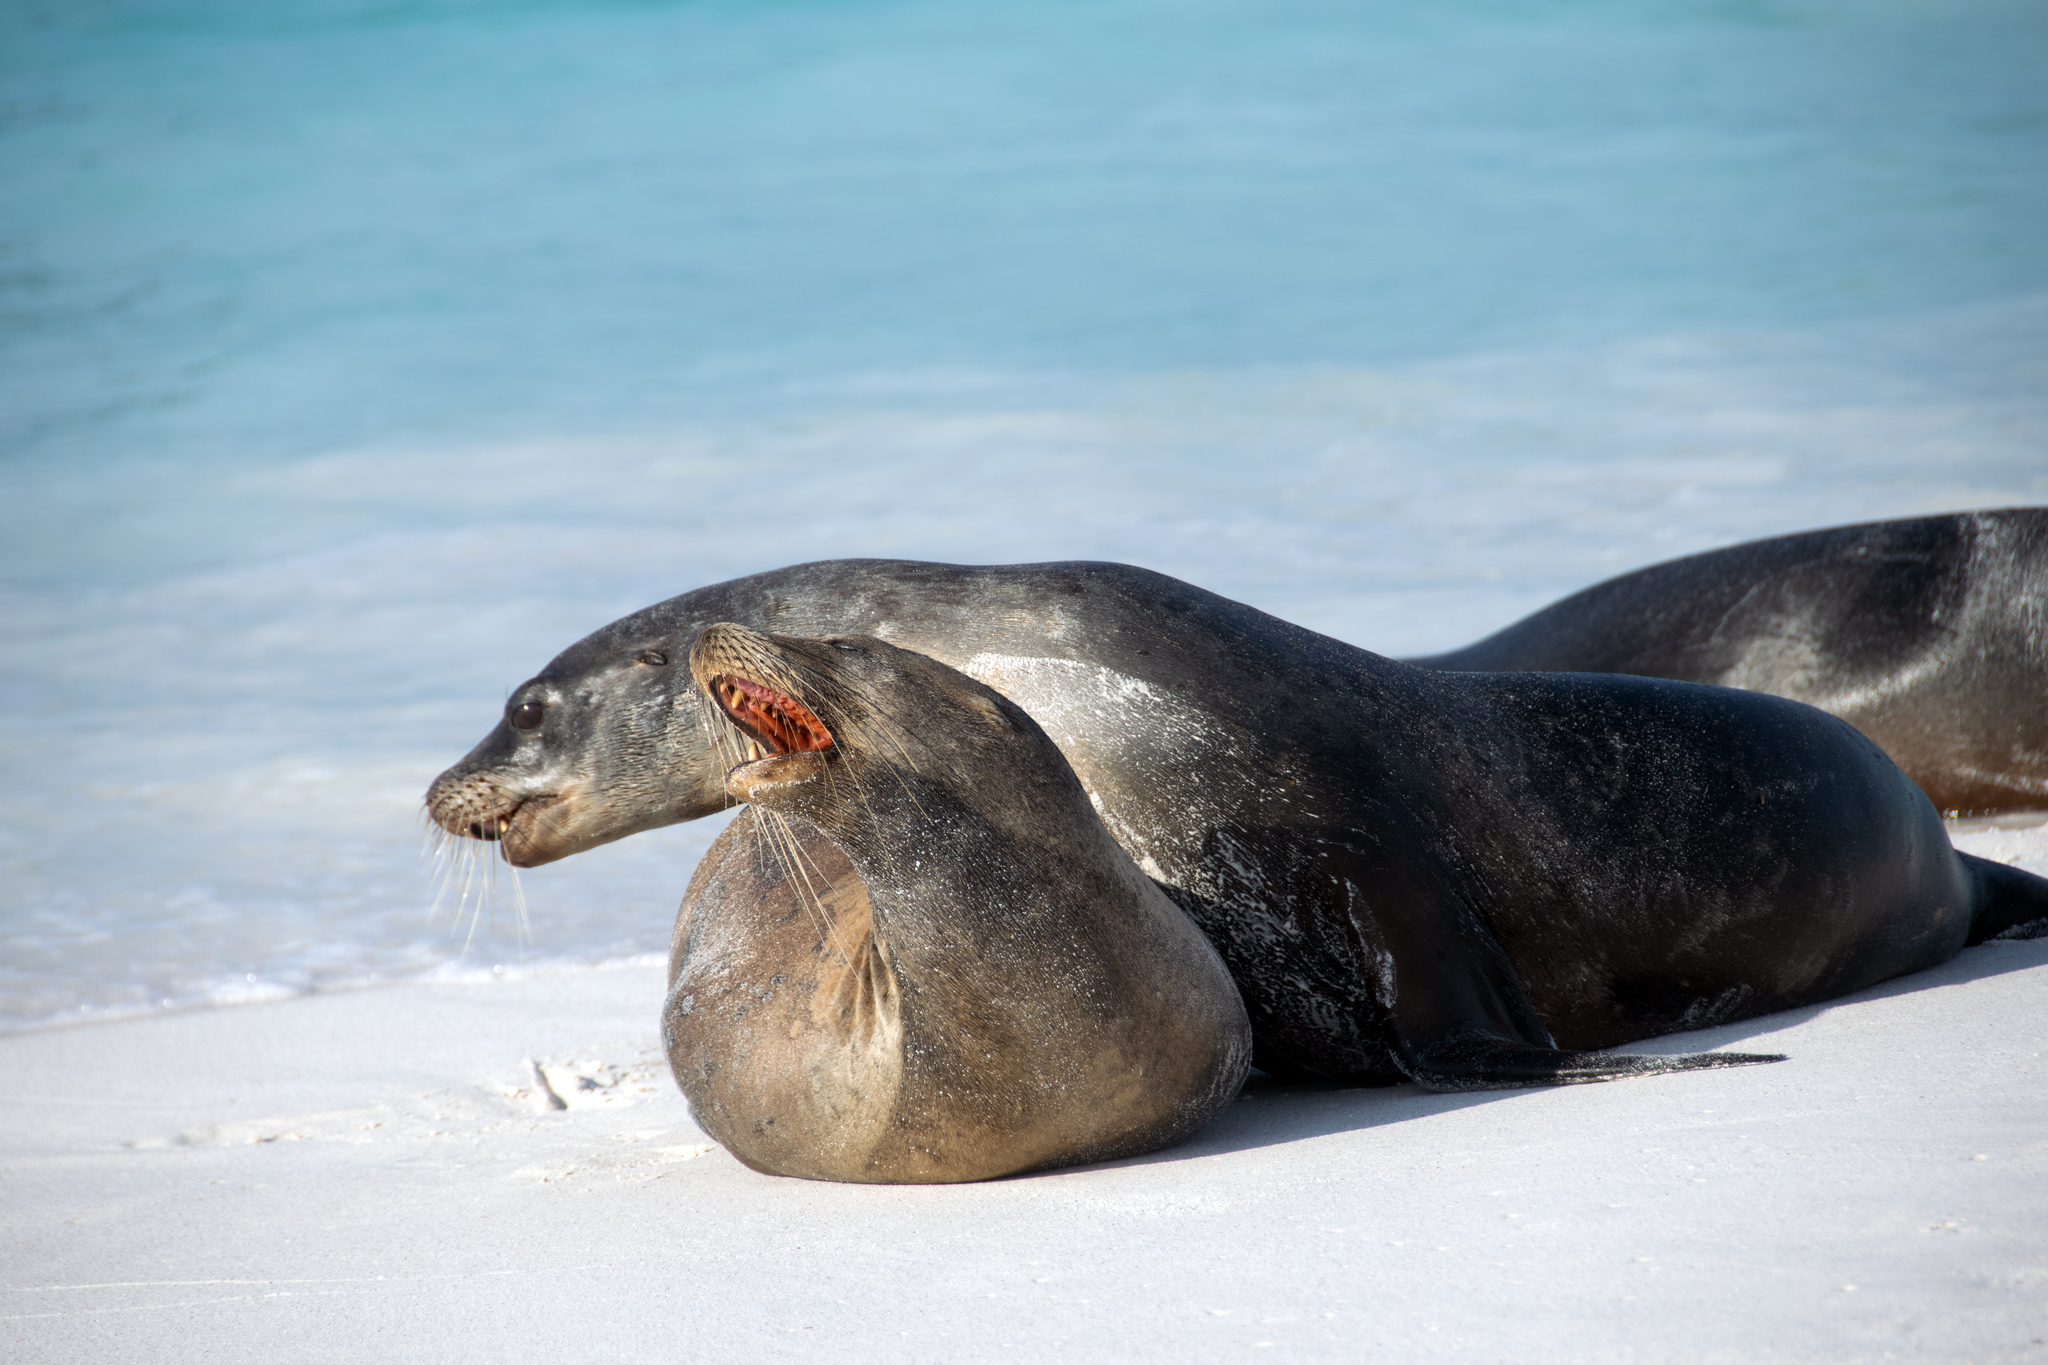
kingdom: Animalia
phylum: Chordata
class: Mammalia
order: Carnivora
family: Otariidae
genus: Zalophus
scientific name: Zalophus wollebaeki
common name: Galapagos sea lion
